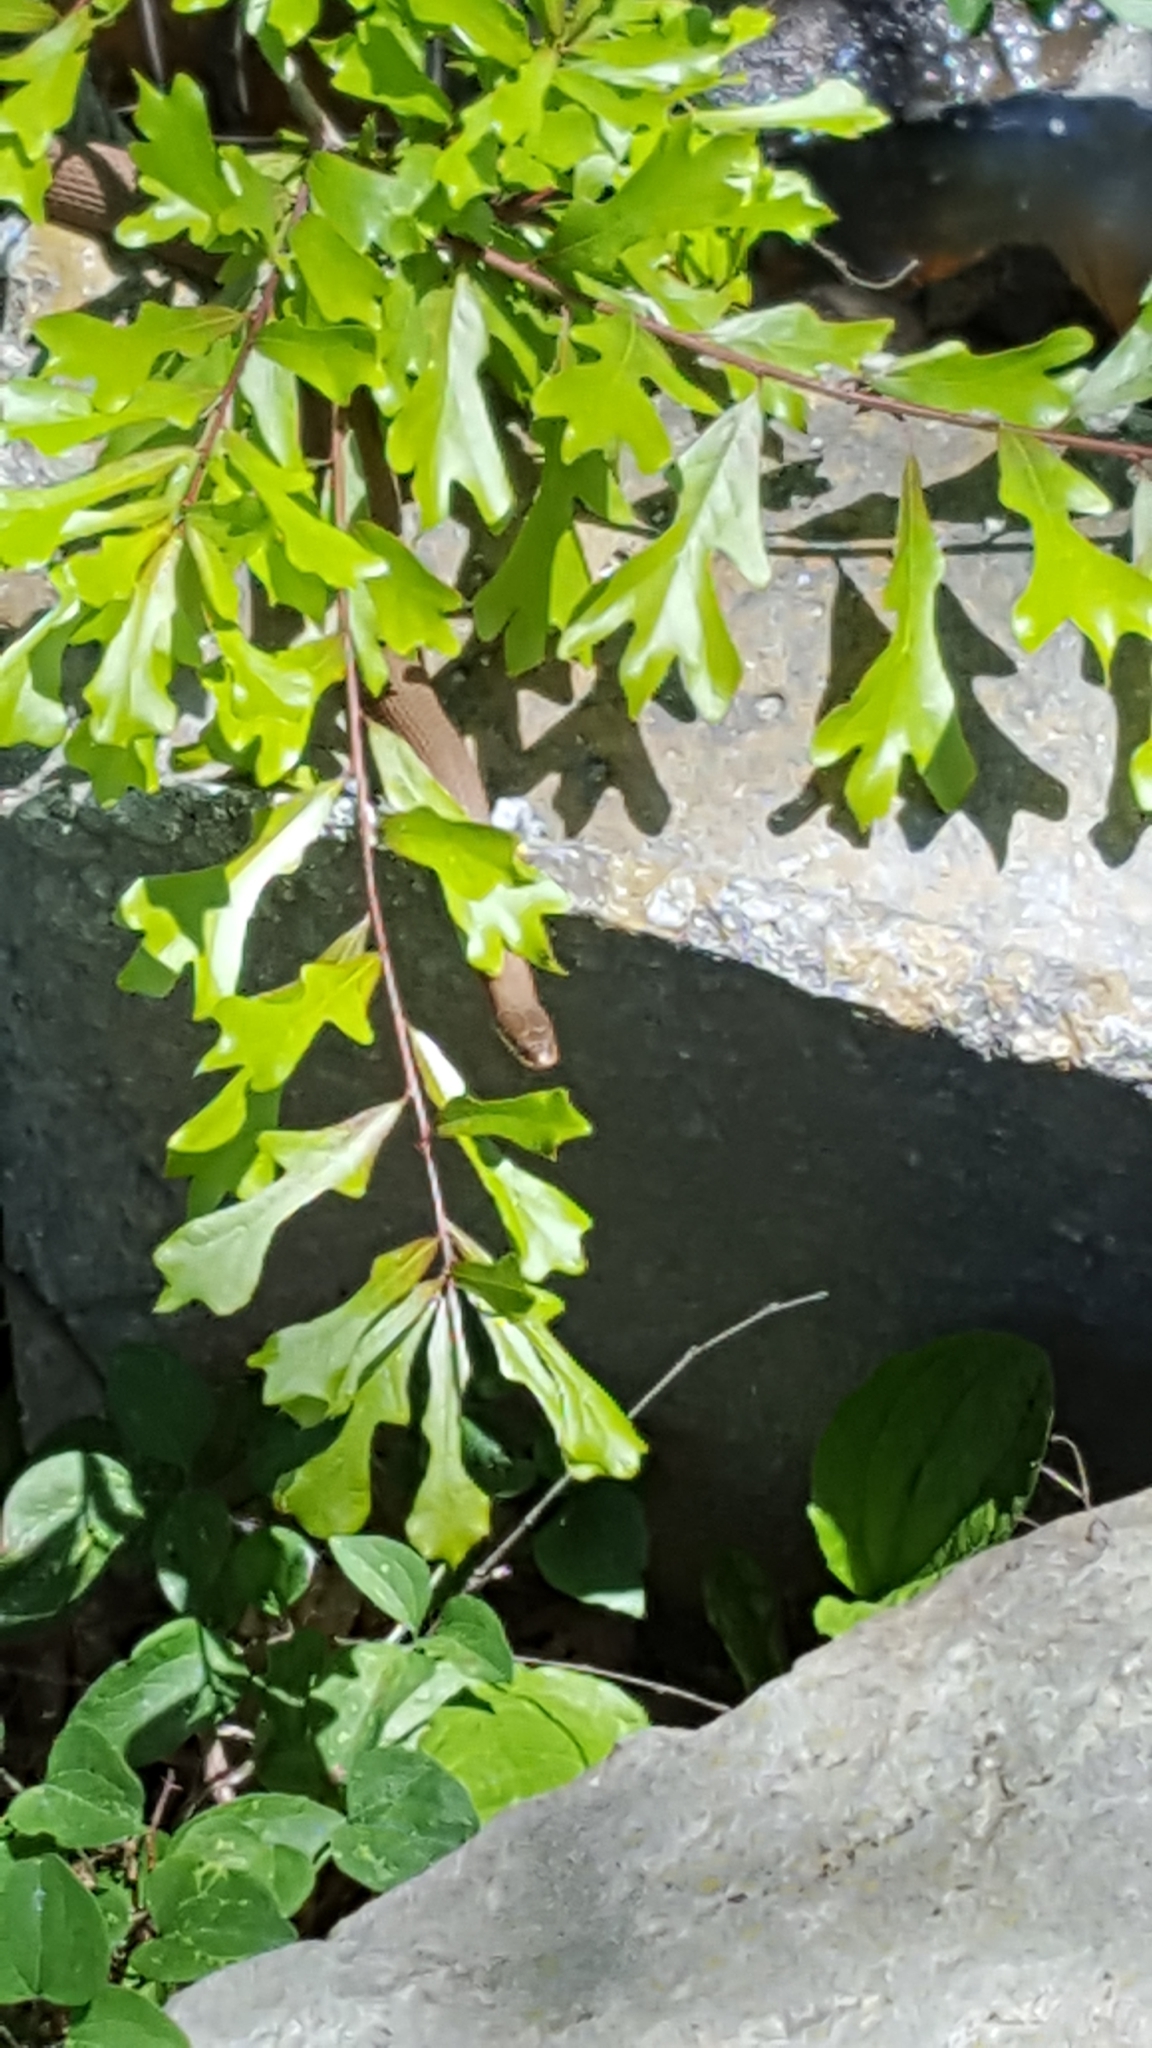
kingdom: Animalia
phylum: Chordata
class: Squamata
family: Colubridae
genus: Regina
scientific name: Regina septemvittata
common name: Queen snake
